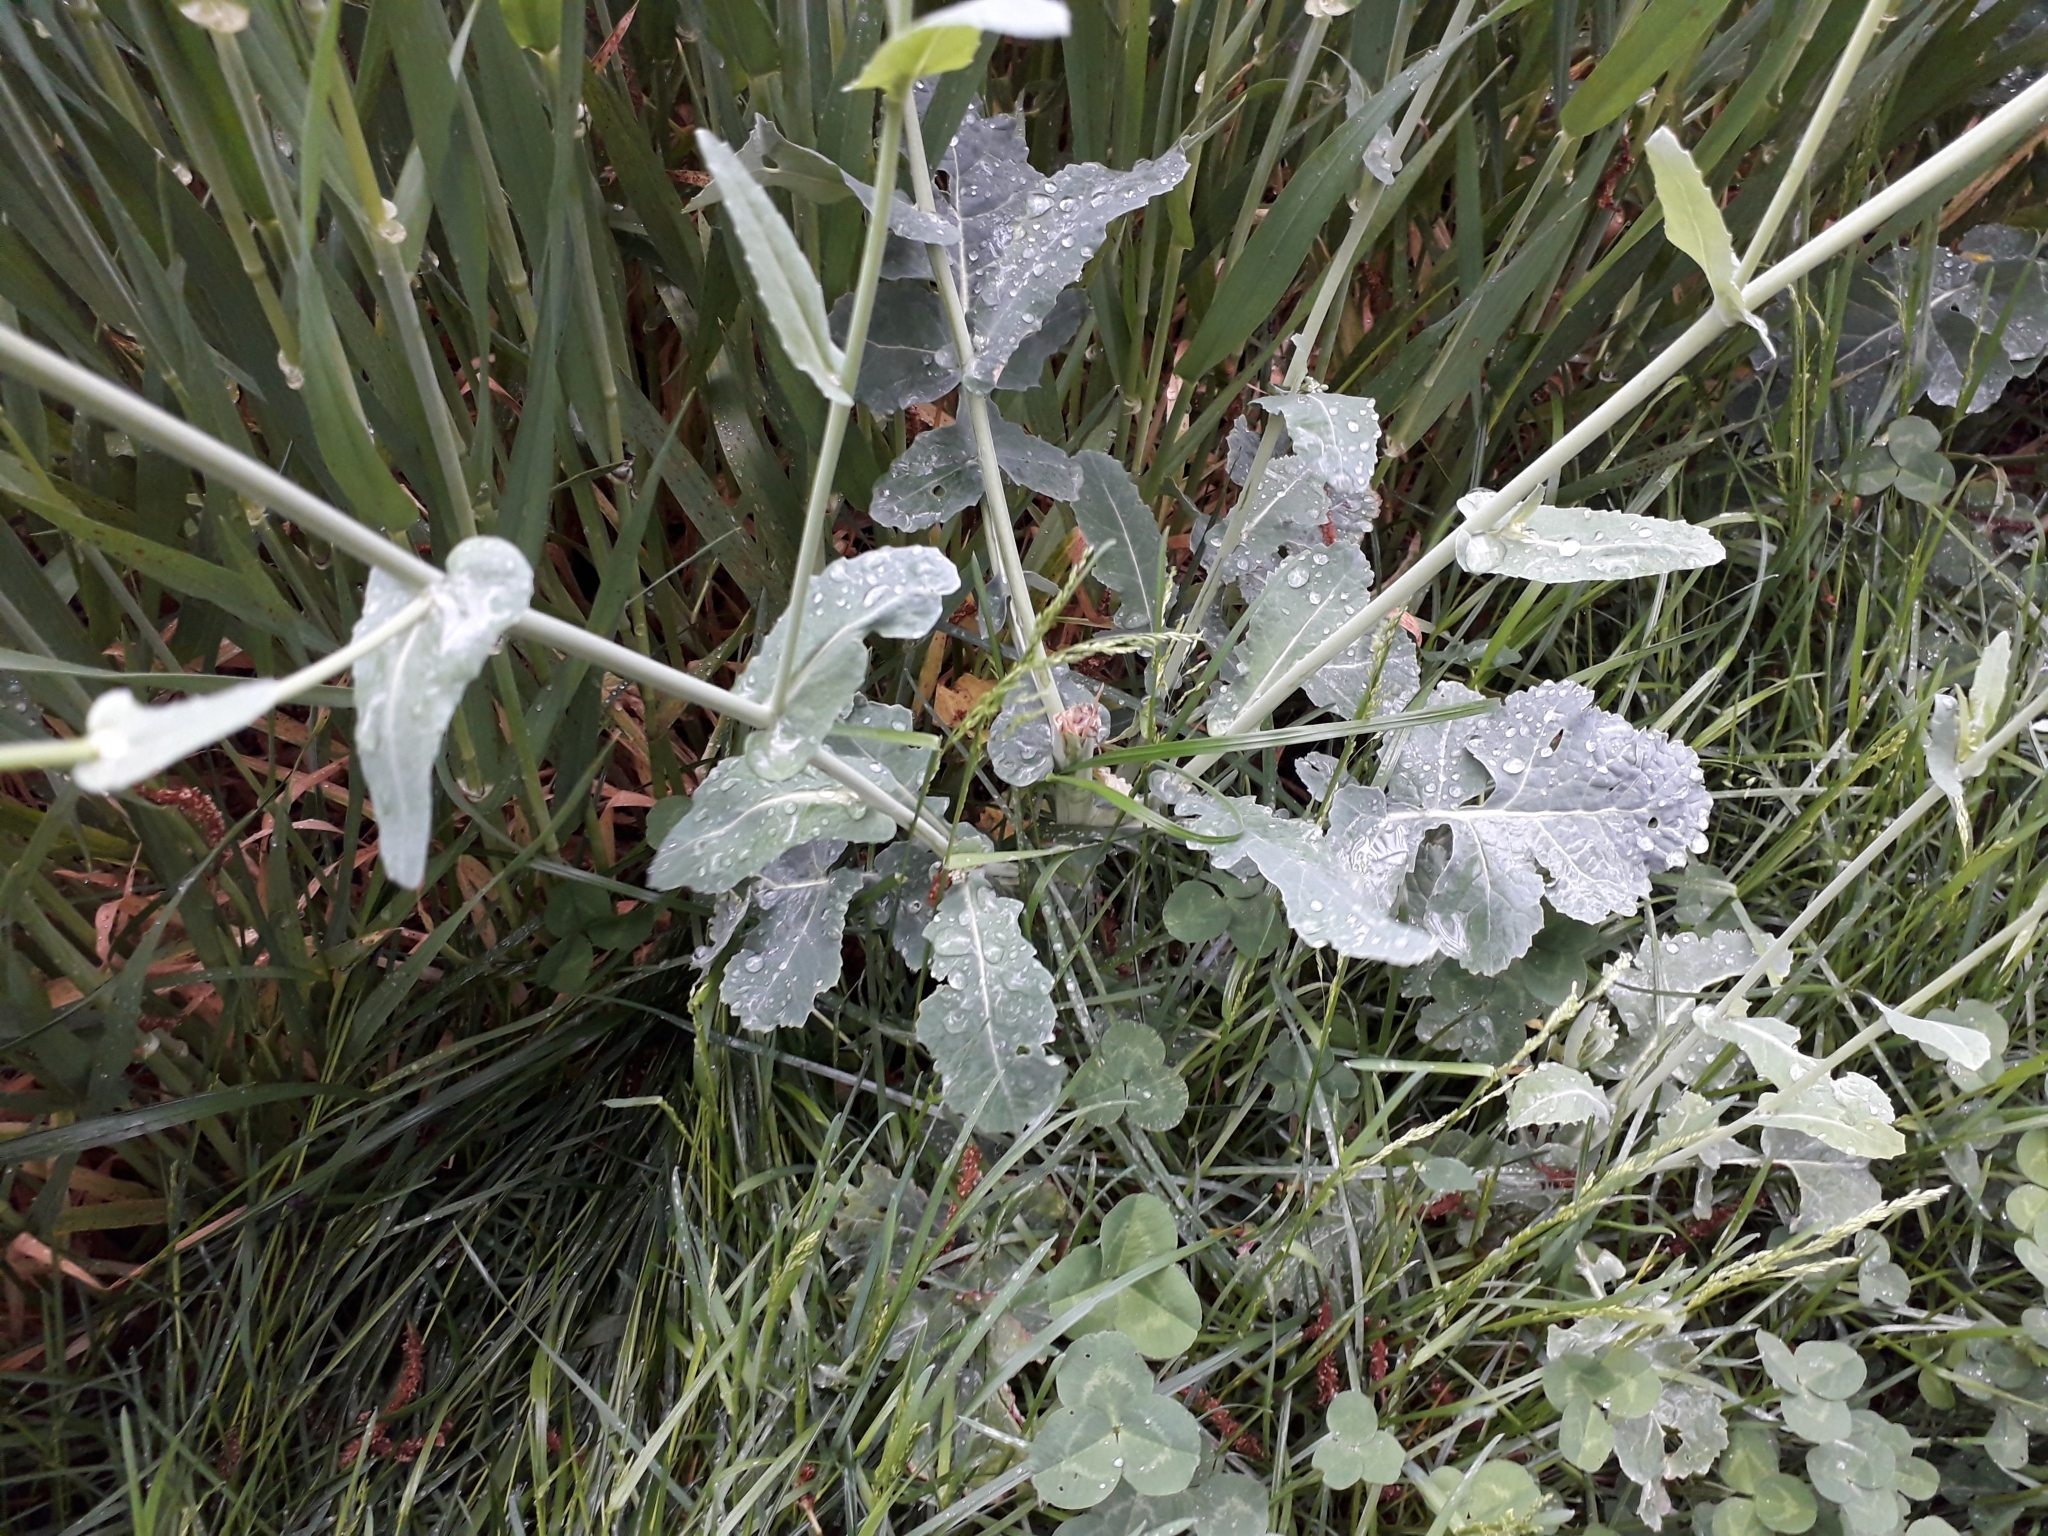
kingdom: Plantae
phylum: Tracheophyta
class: Magnoliopsida
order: Brassicales
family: Brassicaceae
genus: Brassica
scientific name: Brassica napus
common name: Rape
